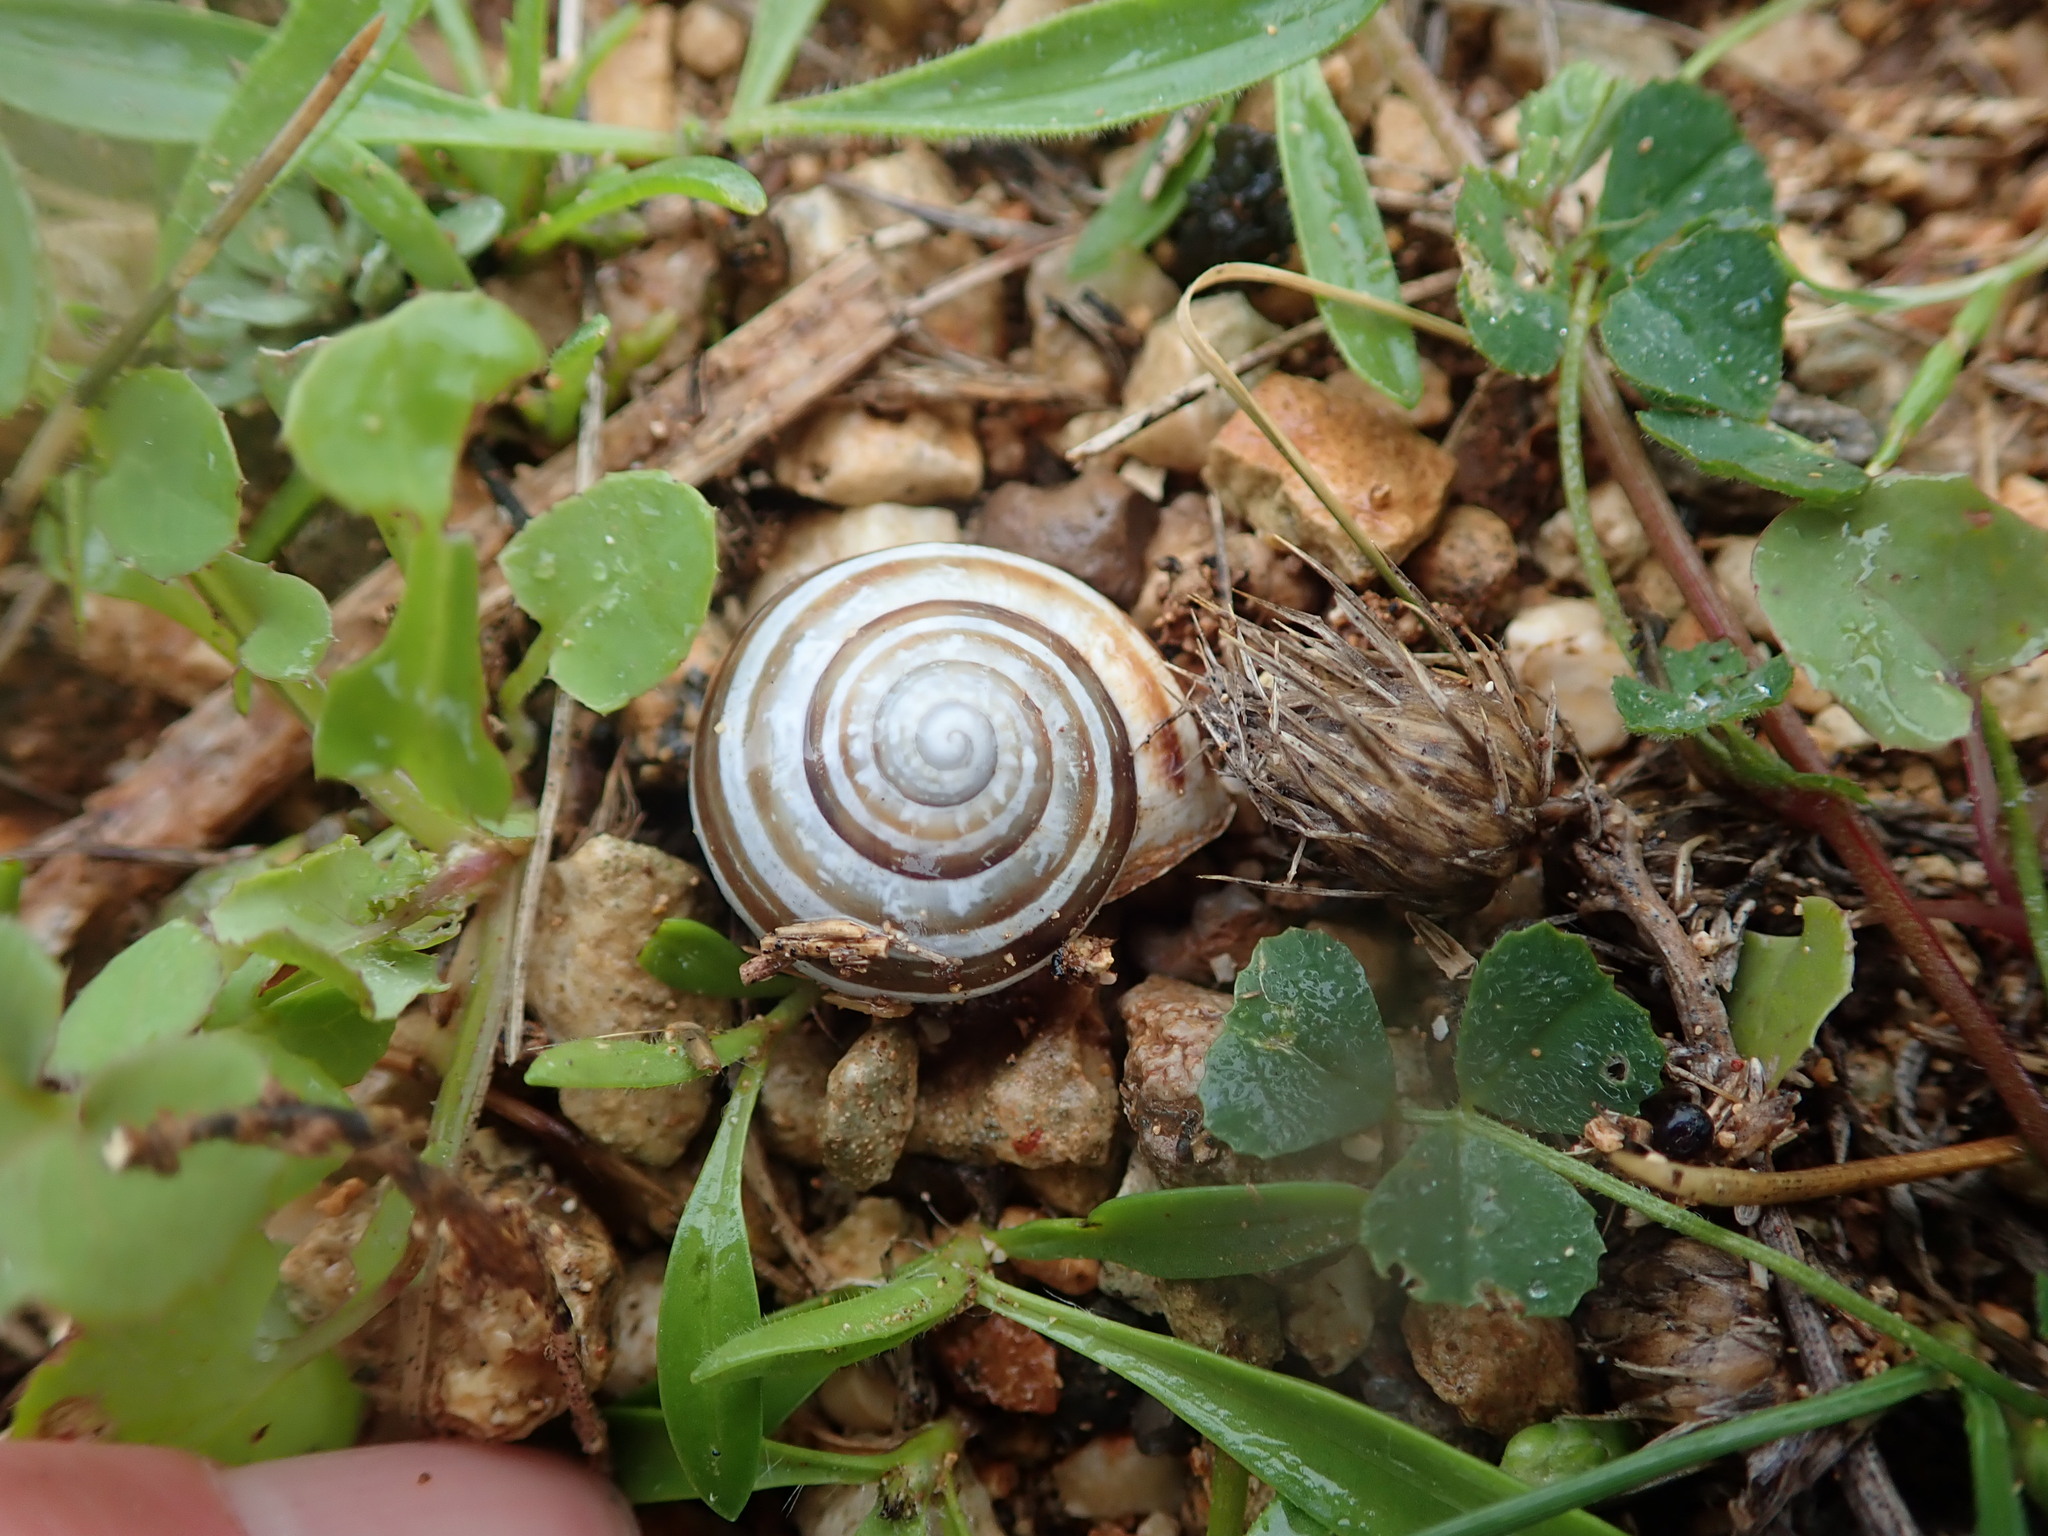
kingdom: Animalia
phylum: Mollusca
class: Gastropoda
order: Stylommatophora
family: Helicidae
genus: Eobania
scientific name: Eobania vermiculata
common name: Chocolateband snail
